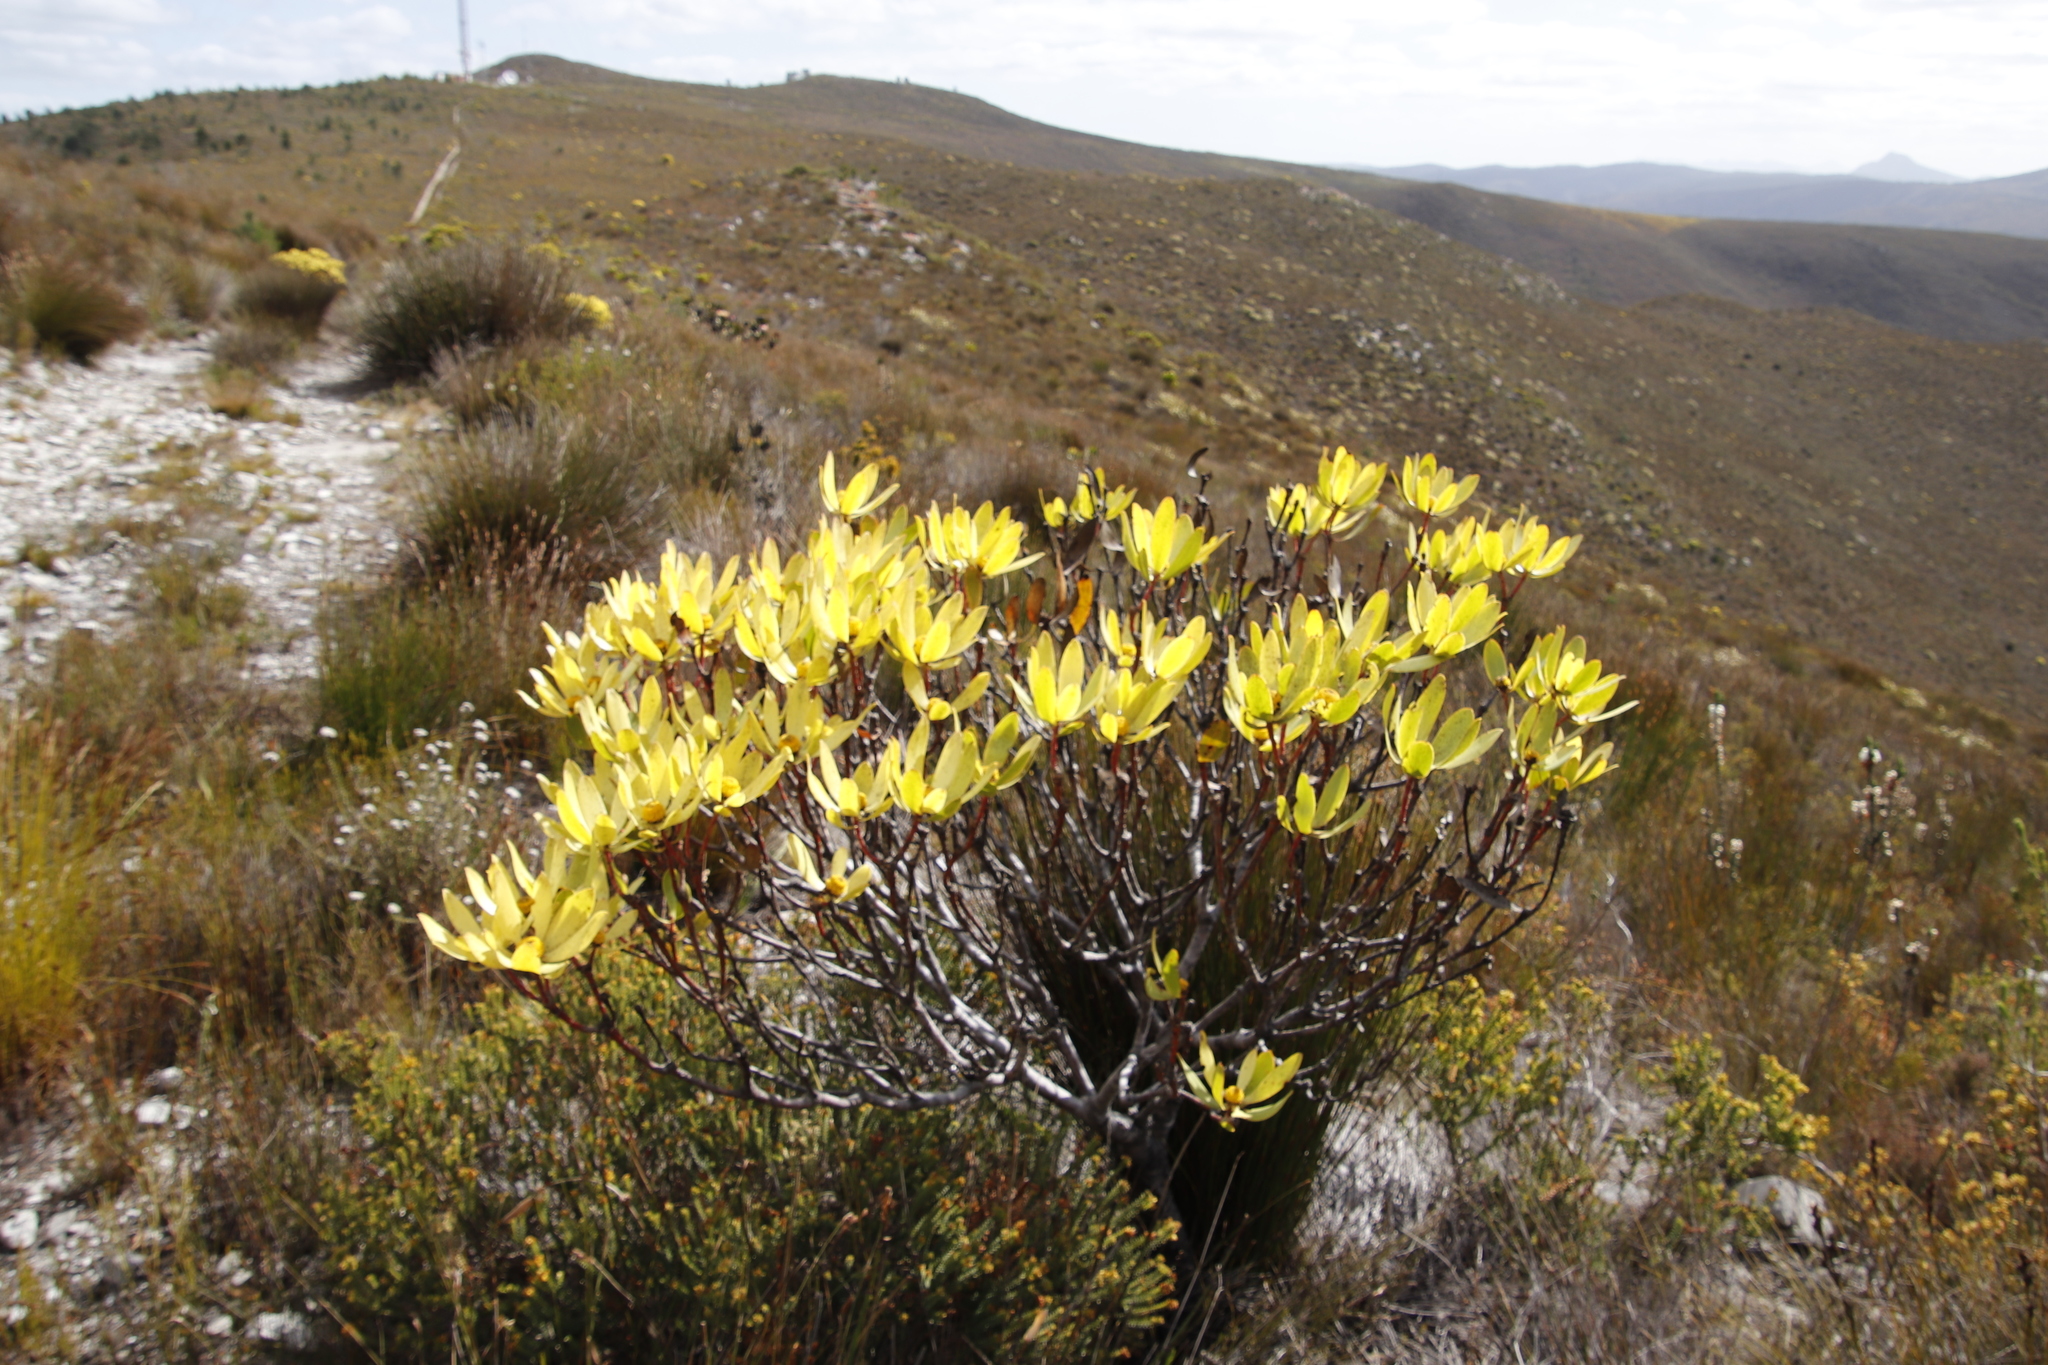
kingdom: Plantae
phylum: Tracheophyta
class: Magnoliopsida
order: Proteales
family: Proteaceae
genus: Leucadendron
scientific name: Leucadendron gandogeri
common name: Broad-leaf conebush
